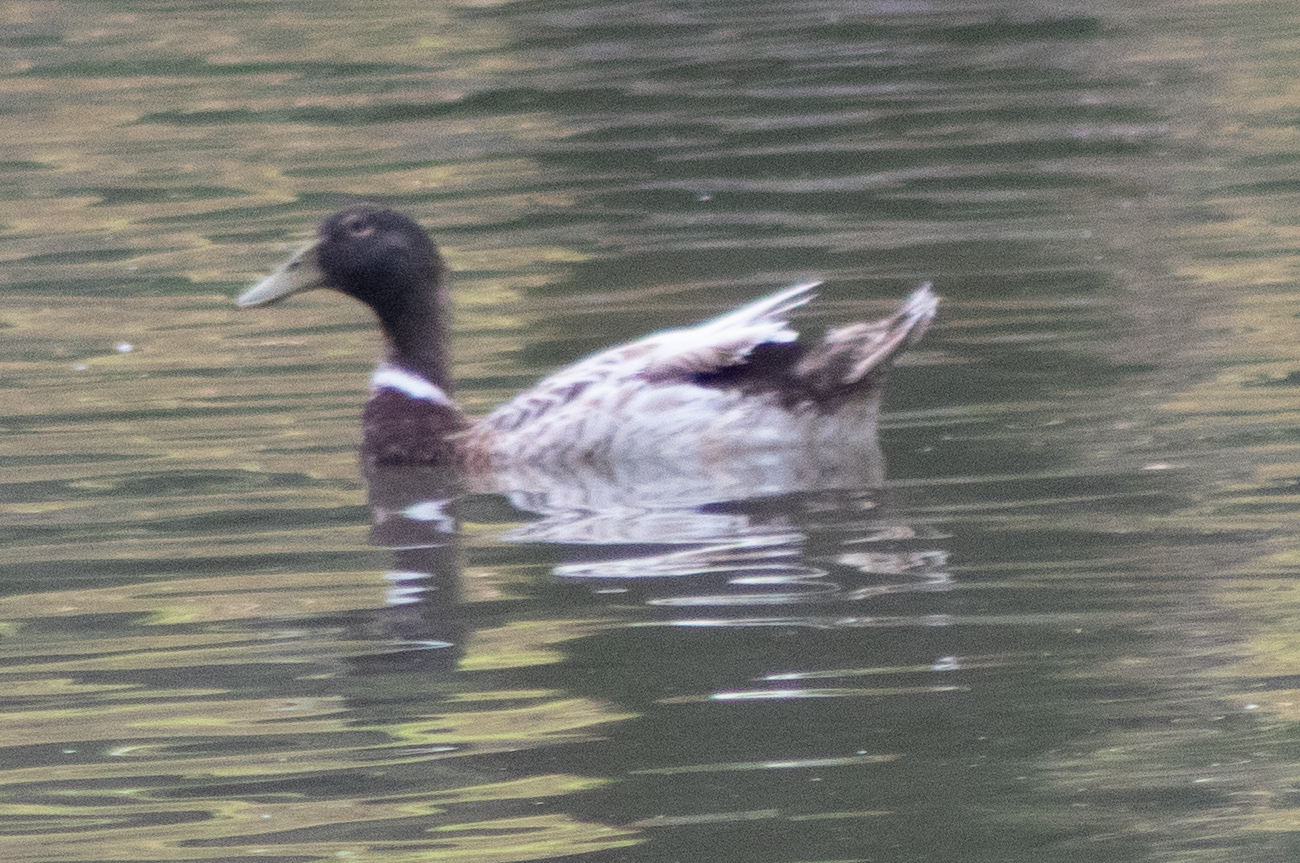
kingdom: Animalia
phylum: Chordata
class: Aves
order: Anseriformes
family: Anatidae
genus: Anas
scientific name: Anas platyrhynchos
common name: Mallard
